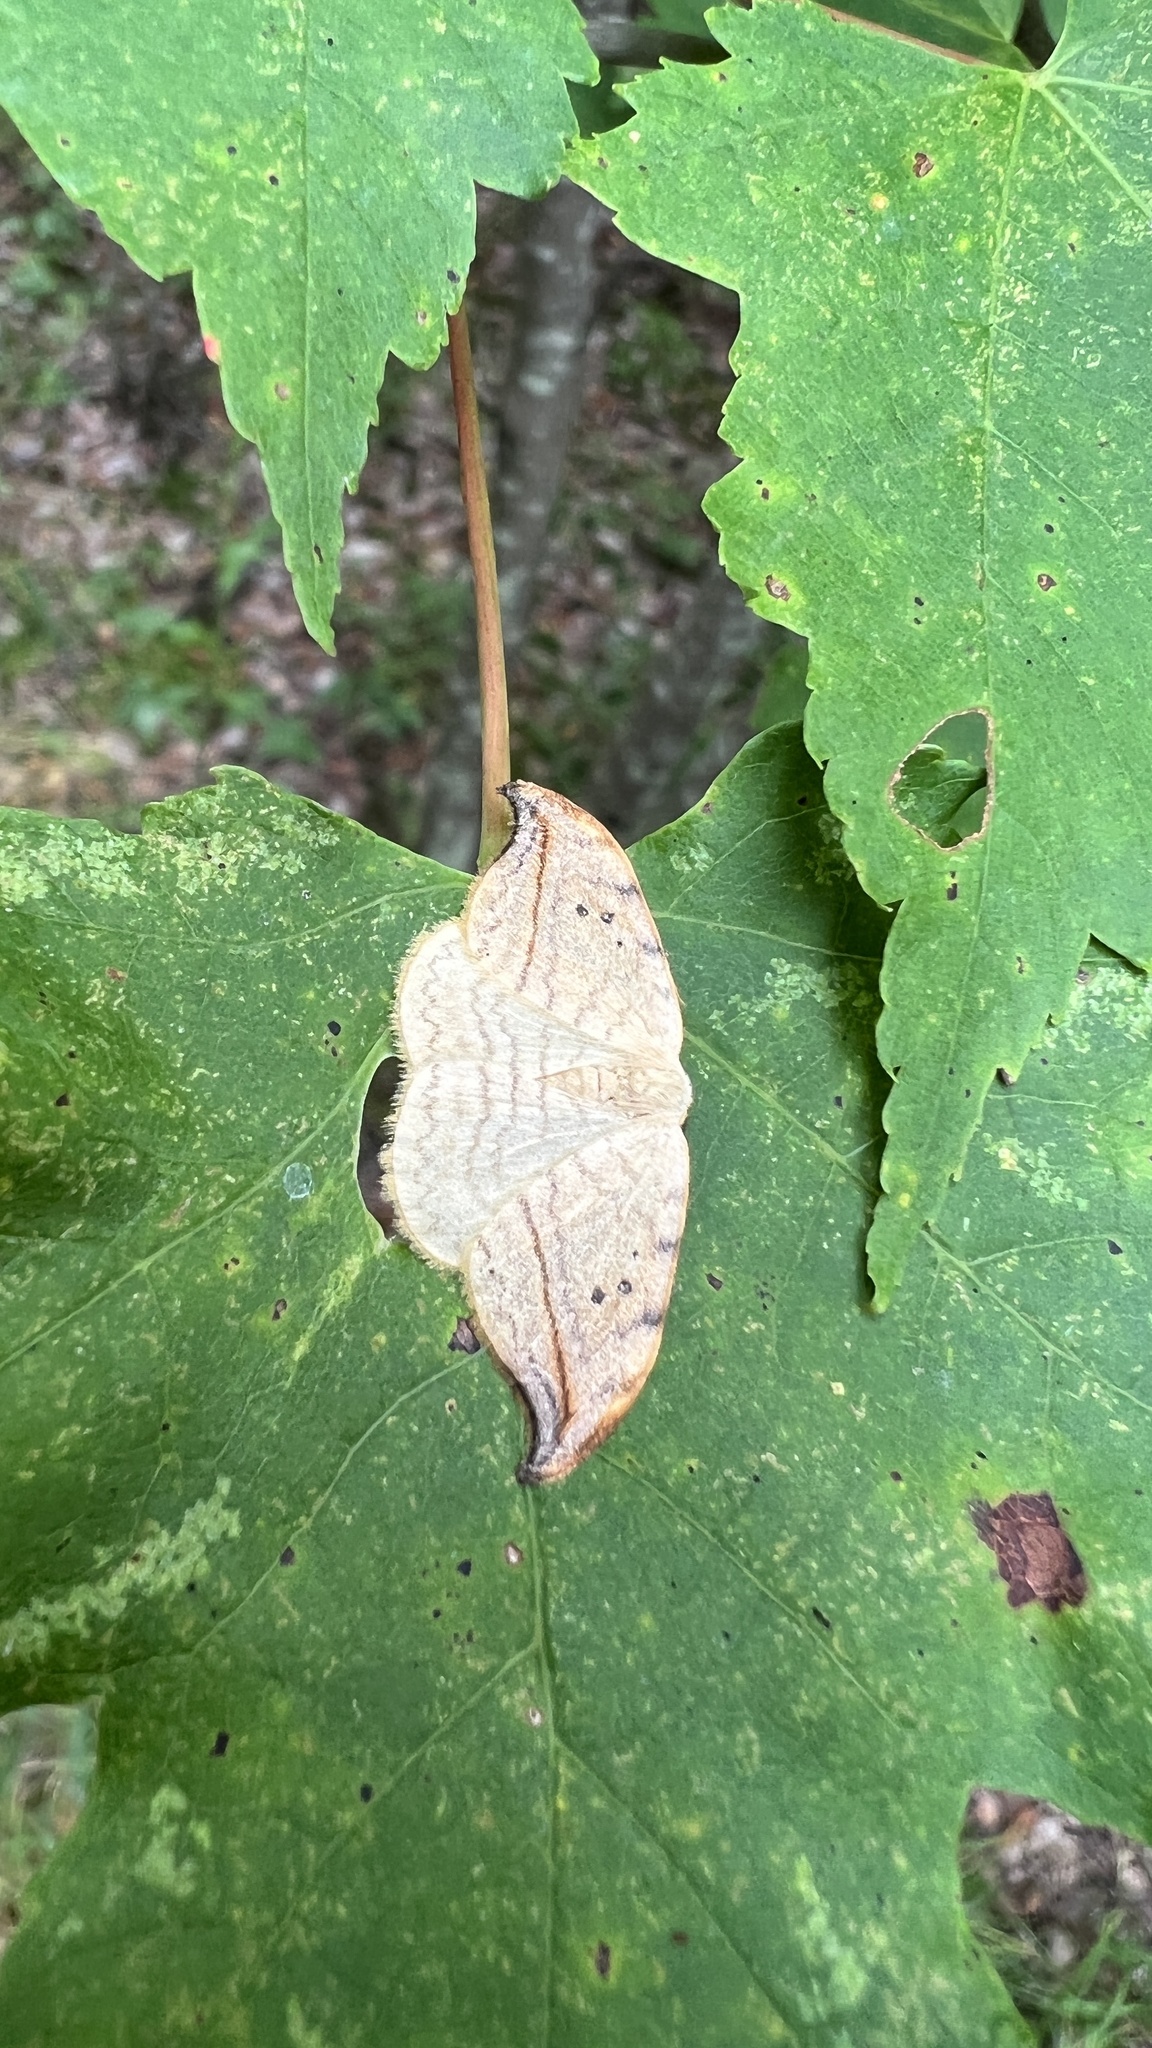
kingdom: Animalia
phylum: Arthropoda
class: Insecta
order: Lepidoptera
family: Drepanidae
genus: Drepana
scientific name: Drepana arcuata
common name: Arched hooktip moth
